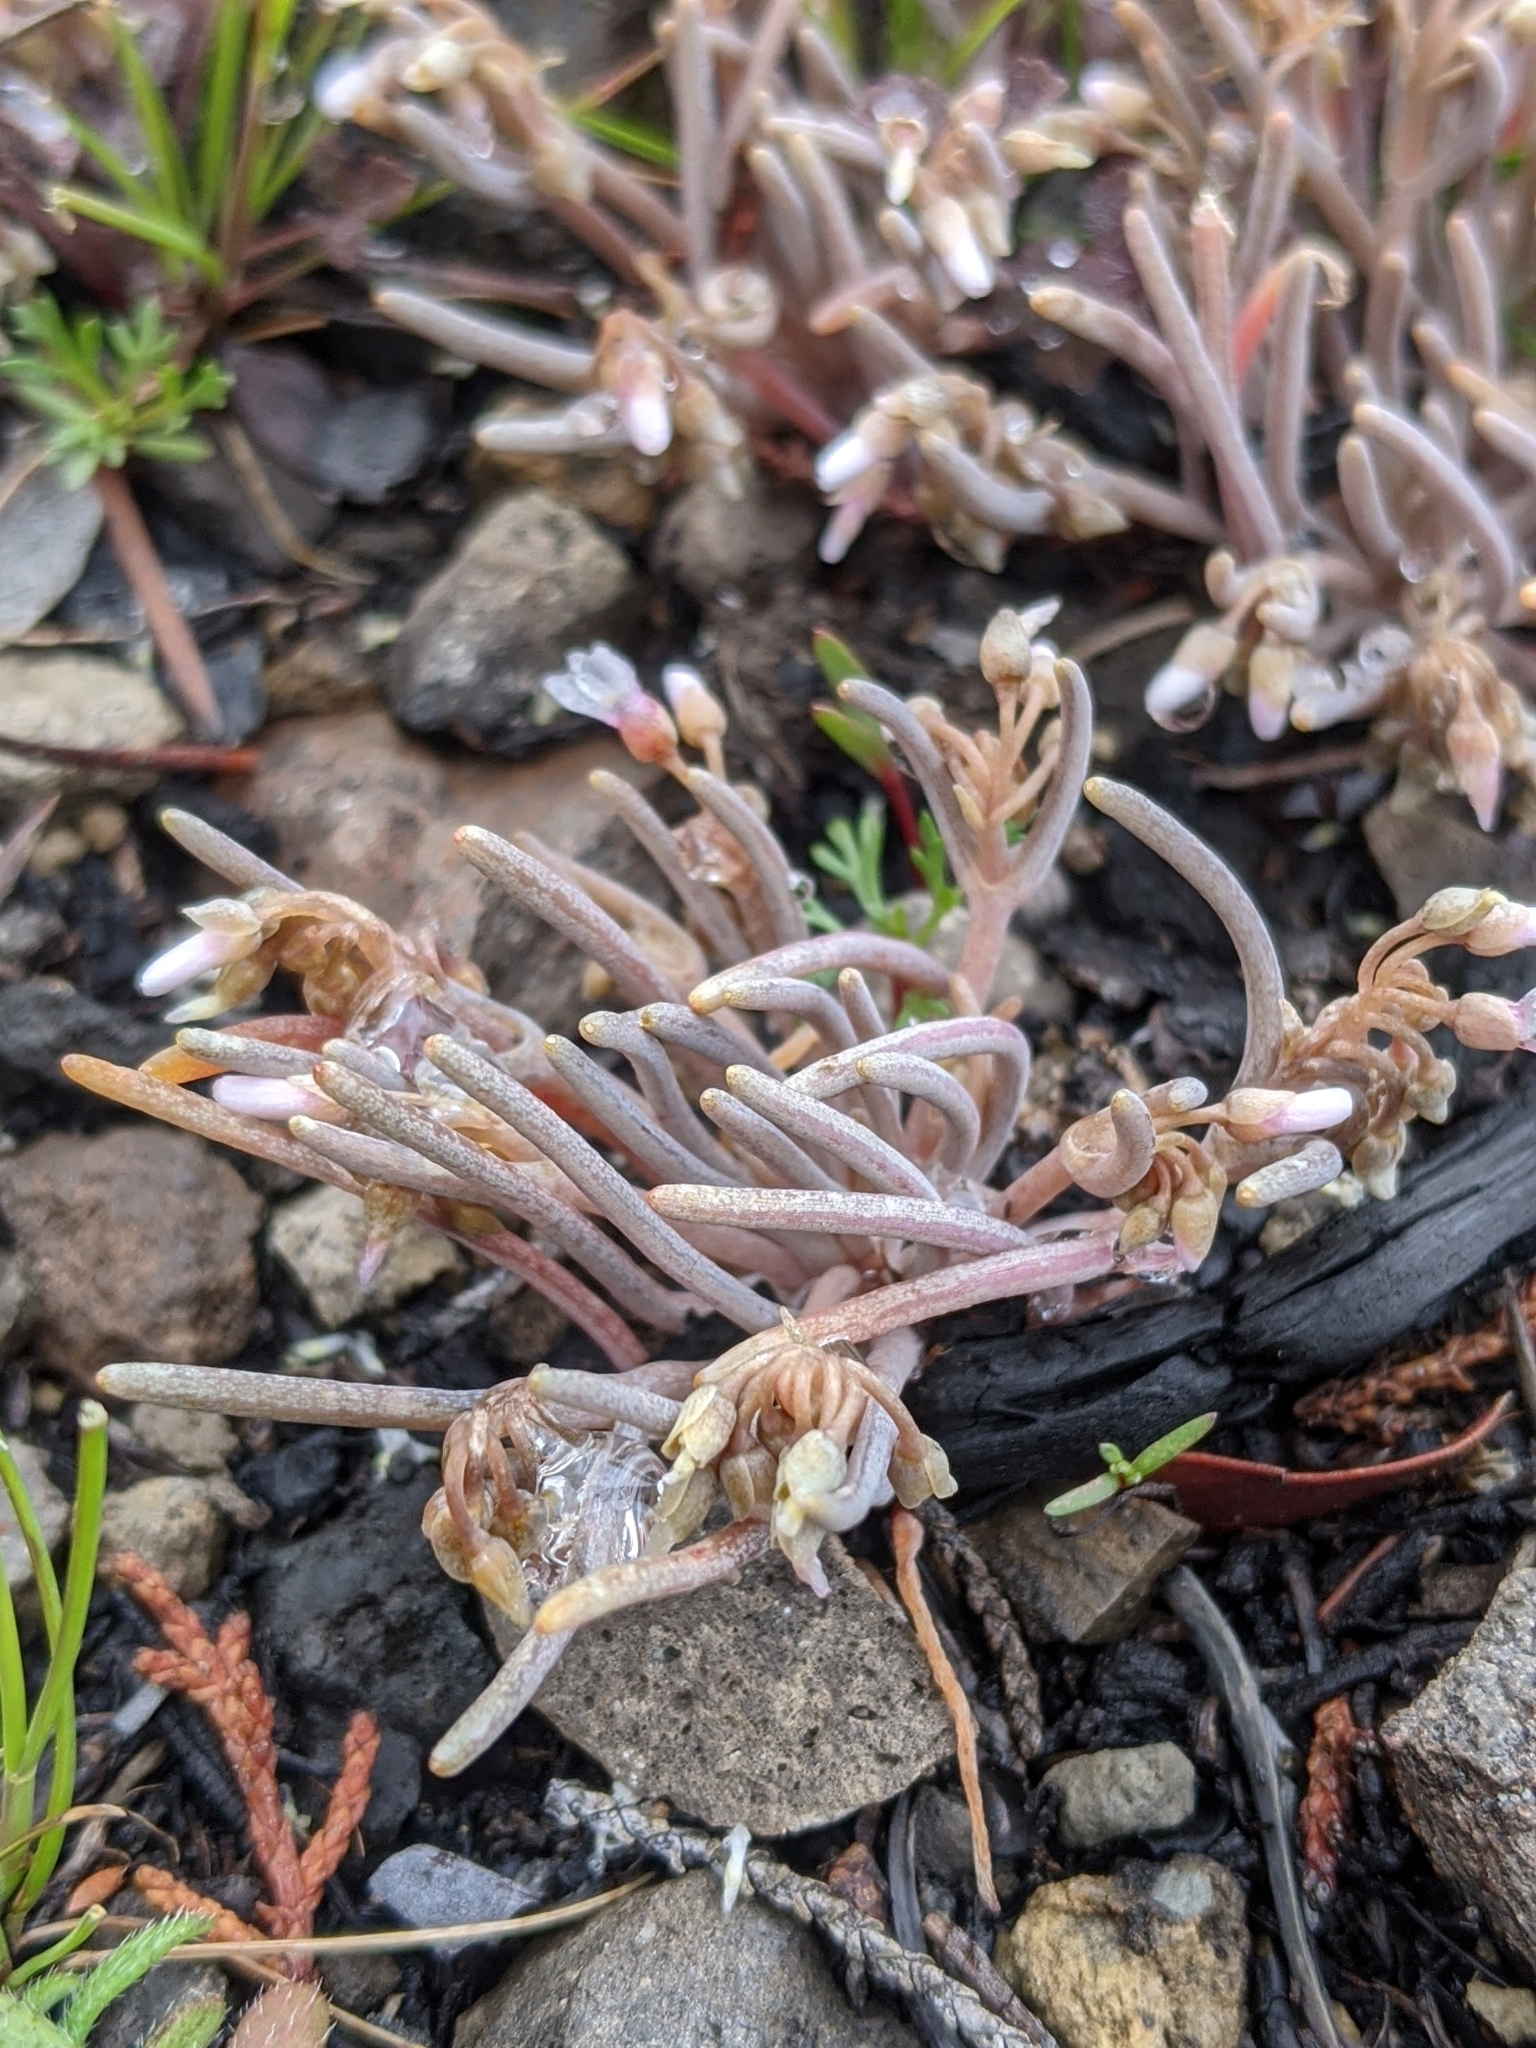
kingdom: Plantae
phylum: Tracheophyta
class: Magnoliopsida
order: Caryophyllales
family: Montiaceae
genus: Claytonia
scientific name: Claytonia exigua
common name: Pale spring beauty
